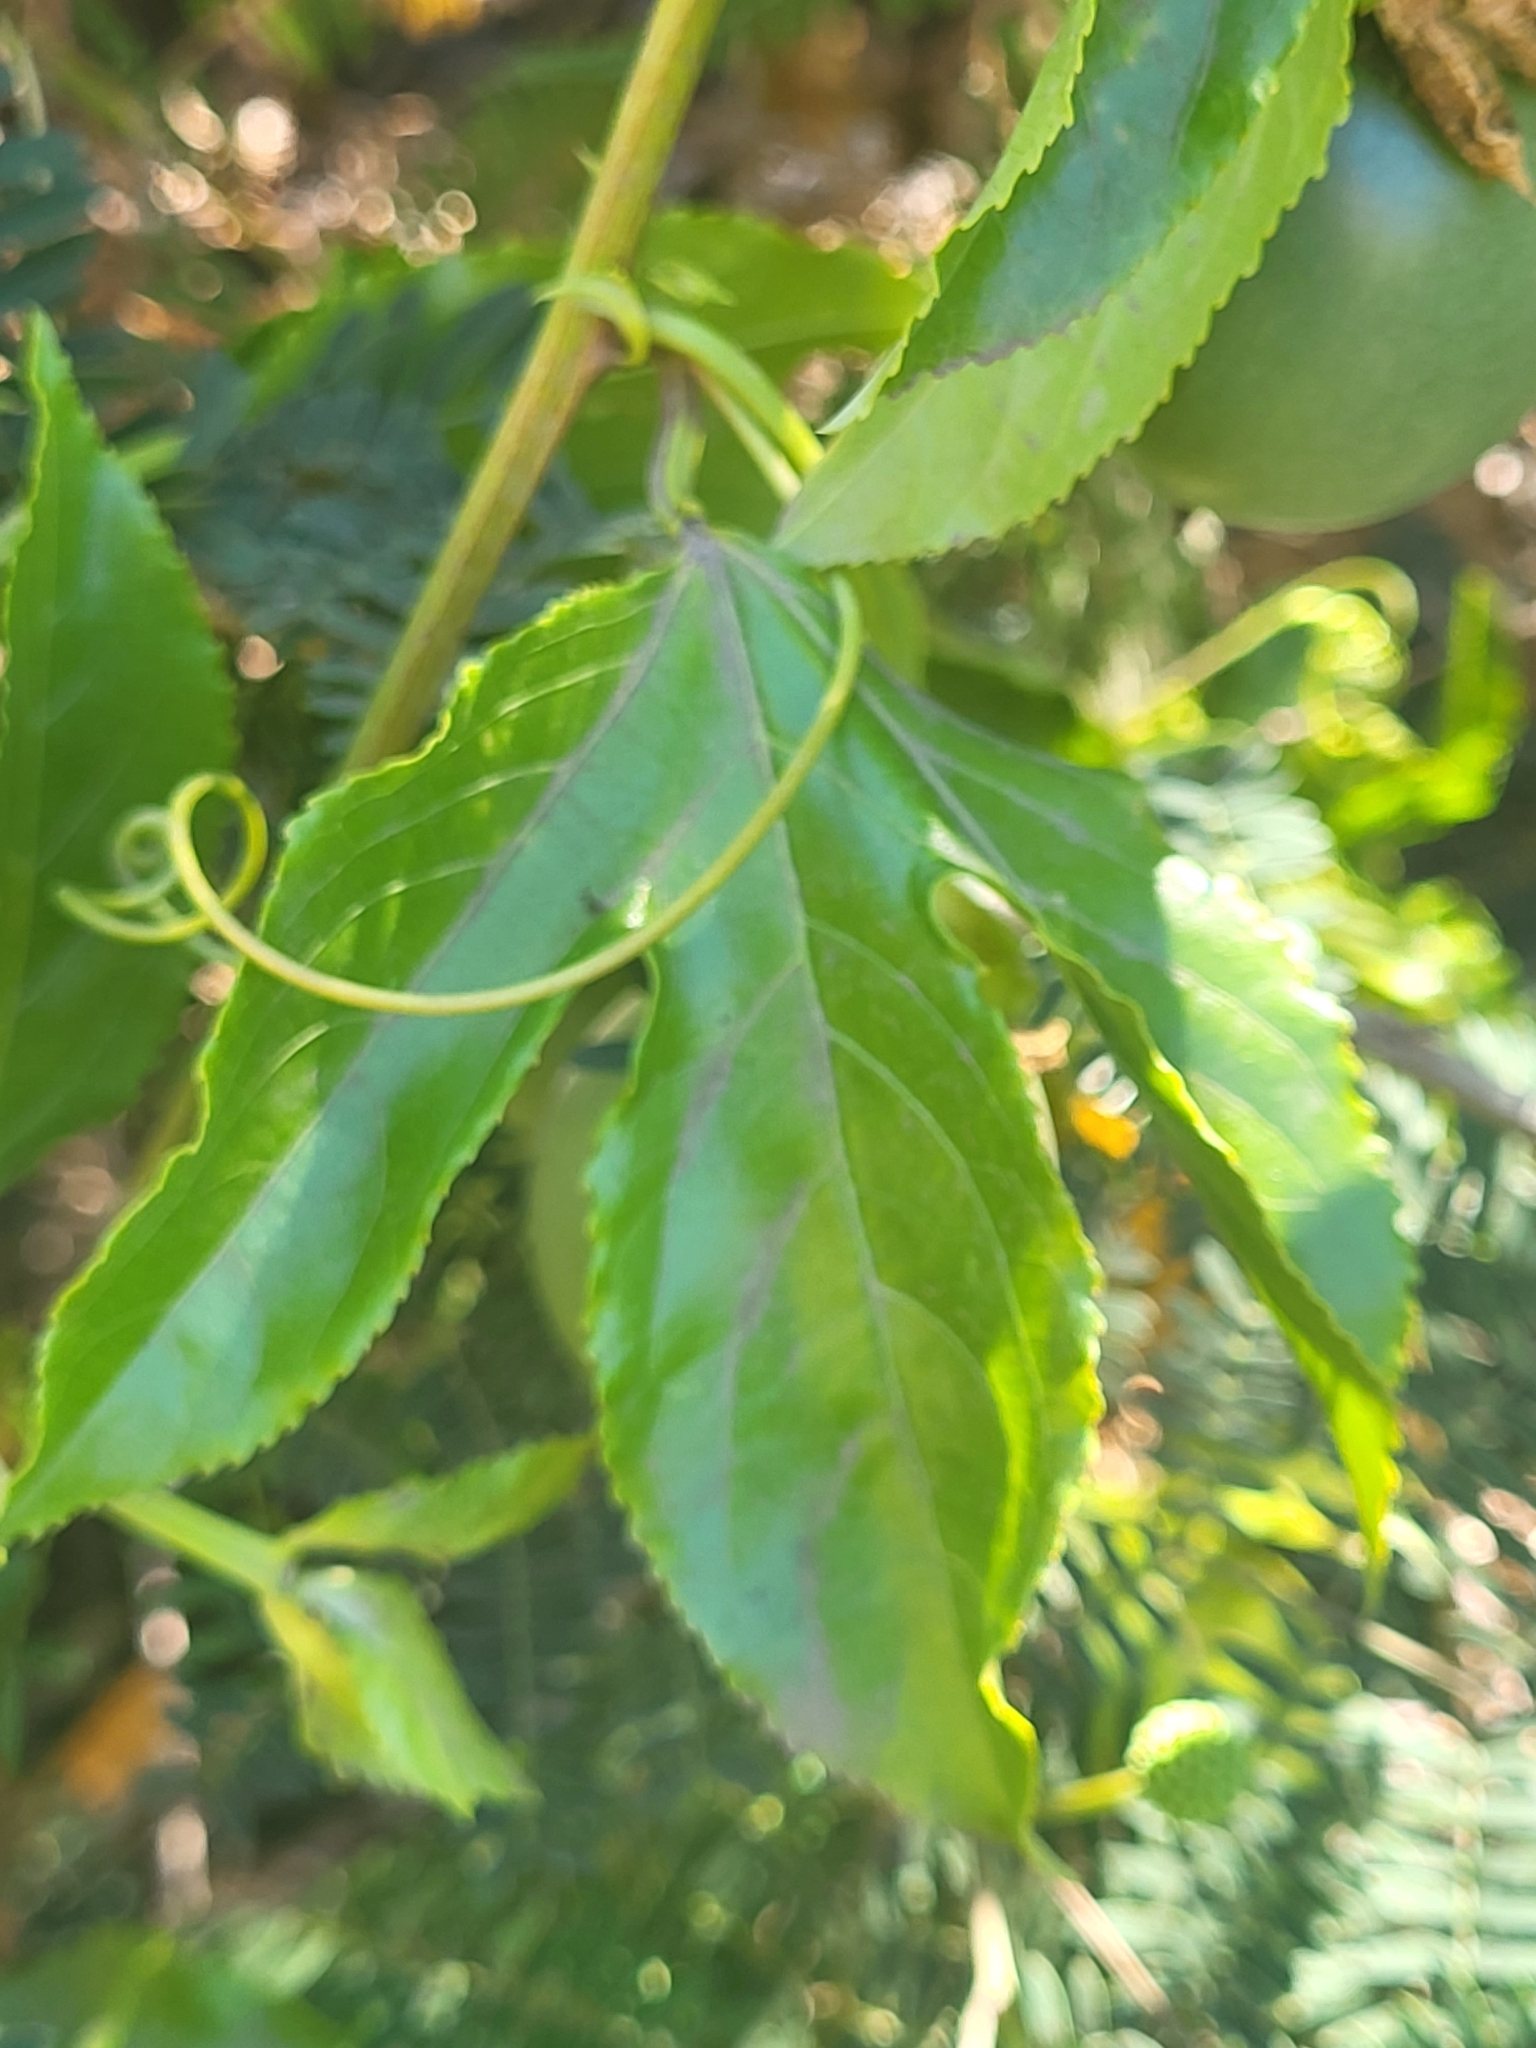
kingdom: Plantae
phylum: Tracheophyta
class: Magnoliopsida
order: Malpighiales
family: Passifloraceae
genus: Passiflora
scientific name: Passiflora edulis
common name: Purple granadilla
